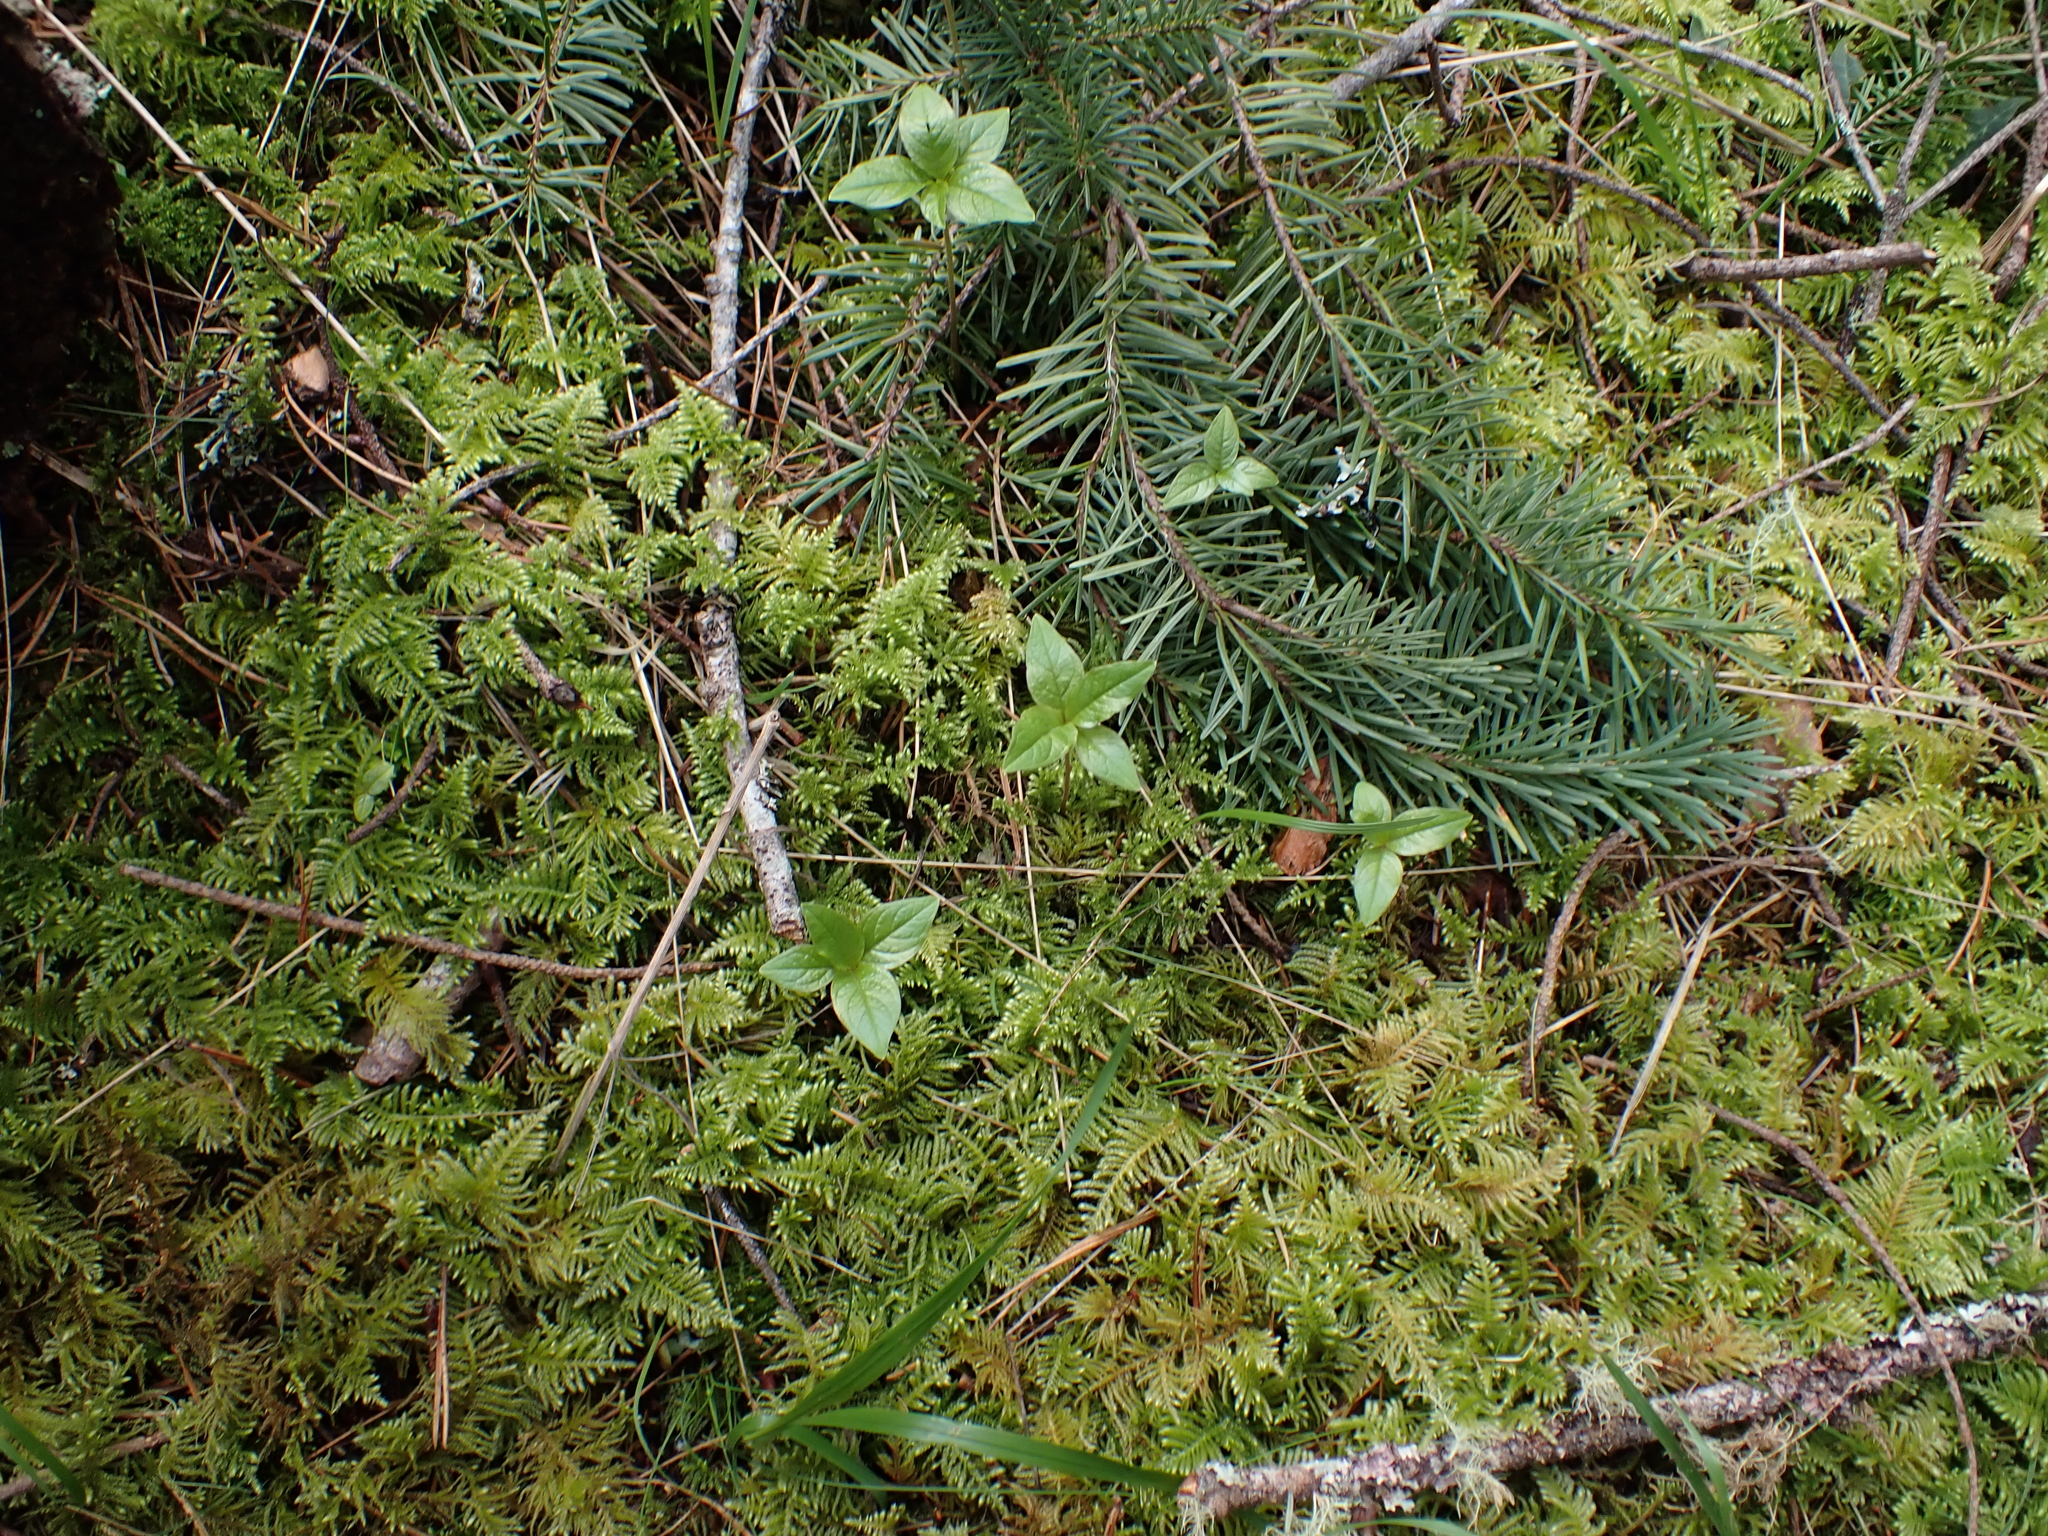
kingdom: Plantae
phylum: Tracheophyta
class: Magnoliopsida
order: Ericales
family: Primulaceae
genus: Lysimachia
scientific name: Lysimachia latifolia
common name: Pacific starflower
